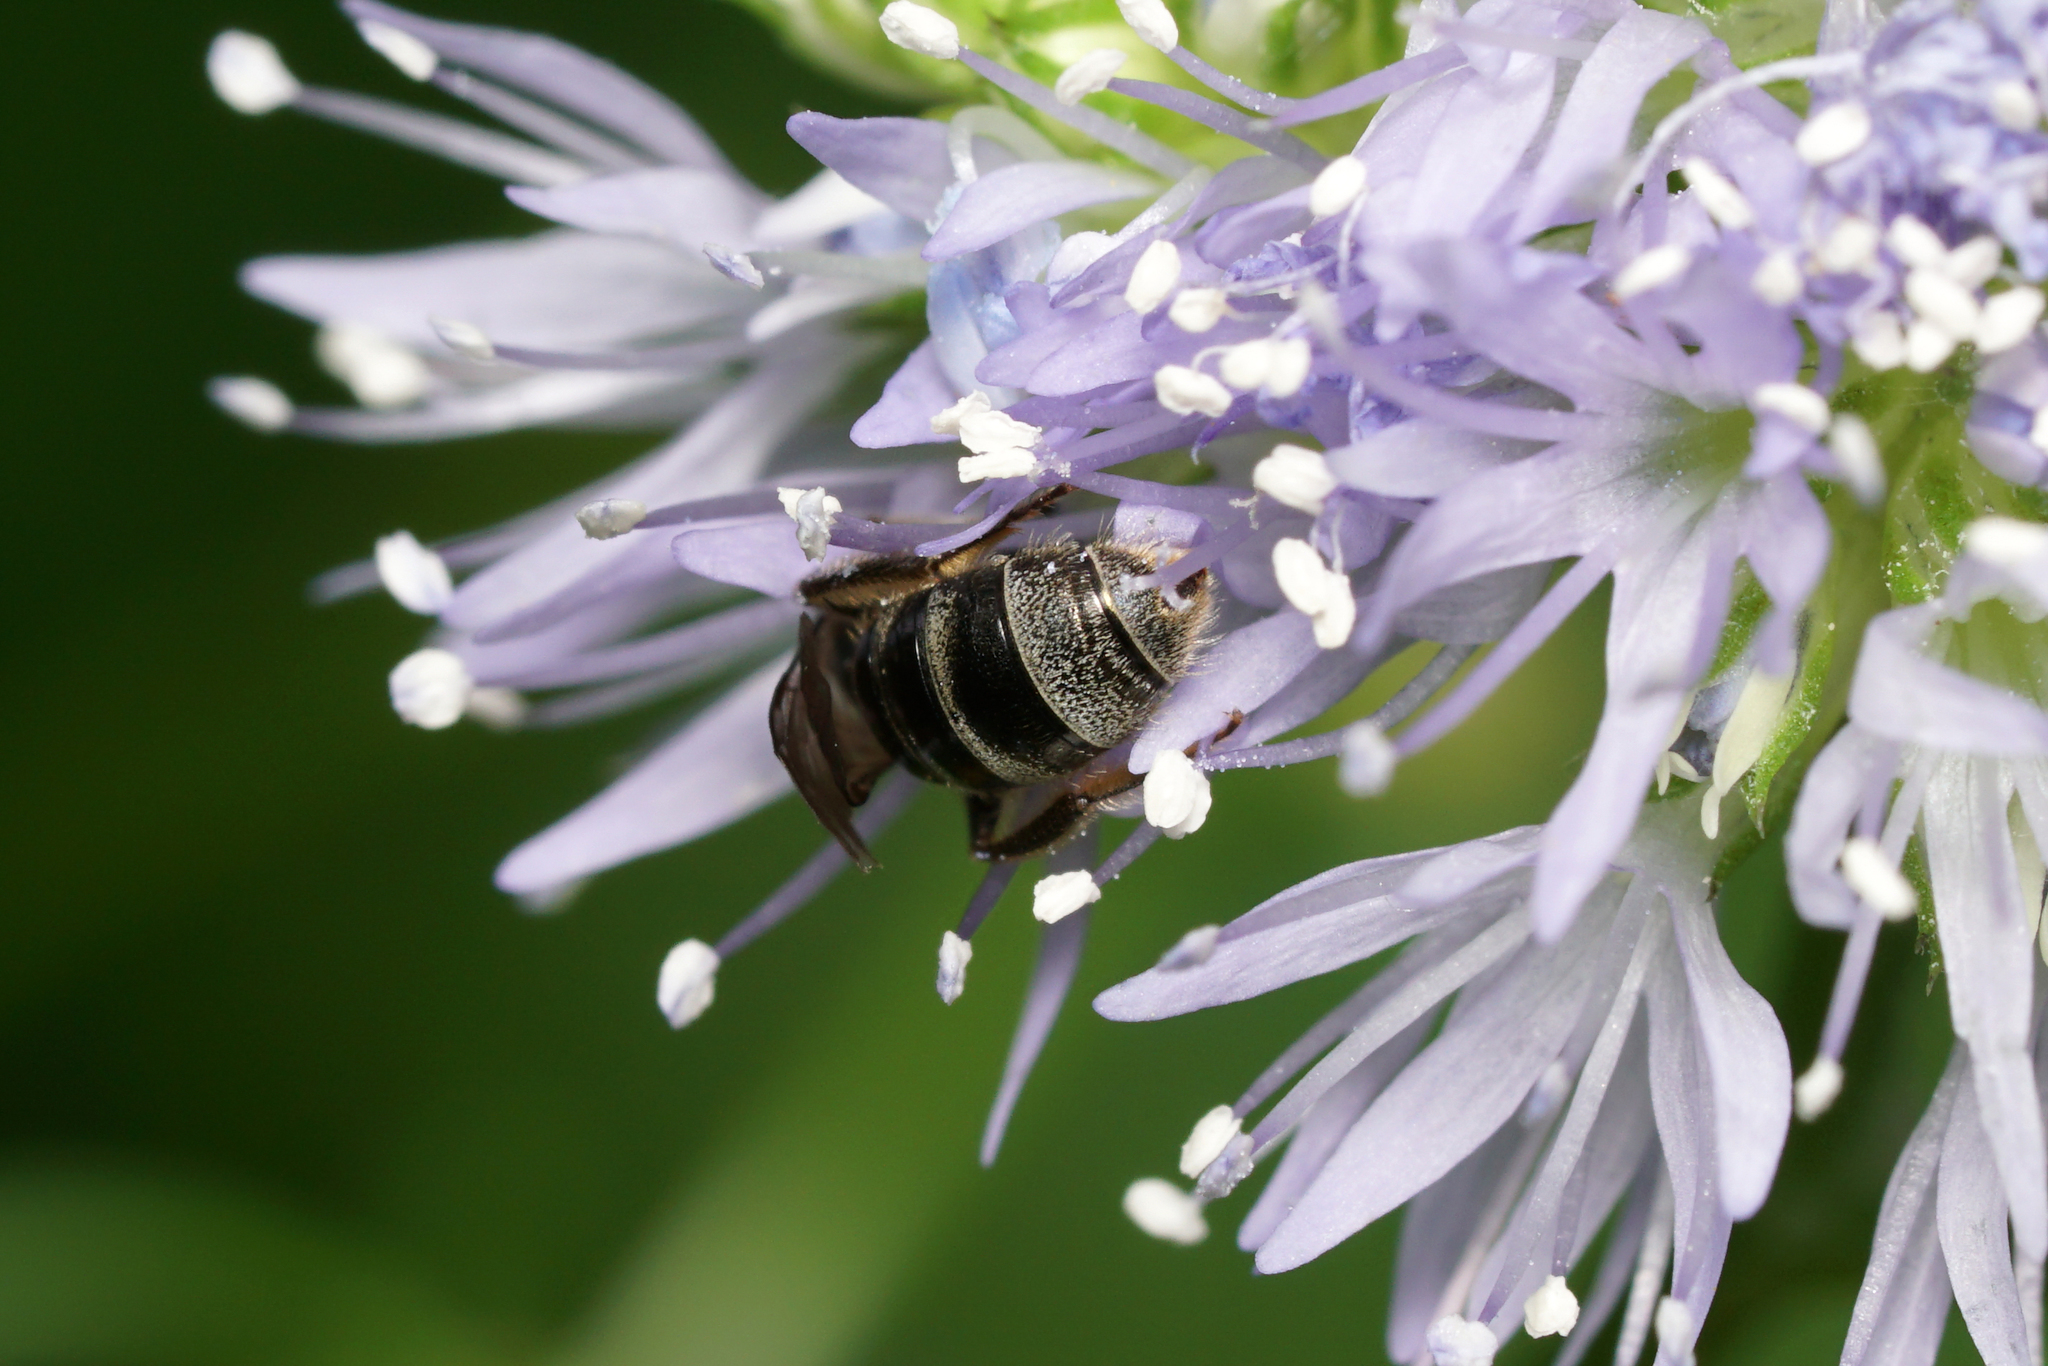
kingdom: Animalia
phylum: Arthropoda
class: Insecta
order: Hymenoptera
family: Halictidae
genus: Dialictus
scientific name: Dialictus
